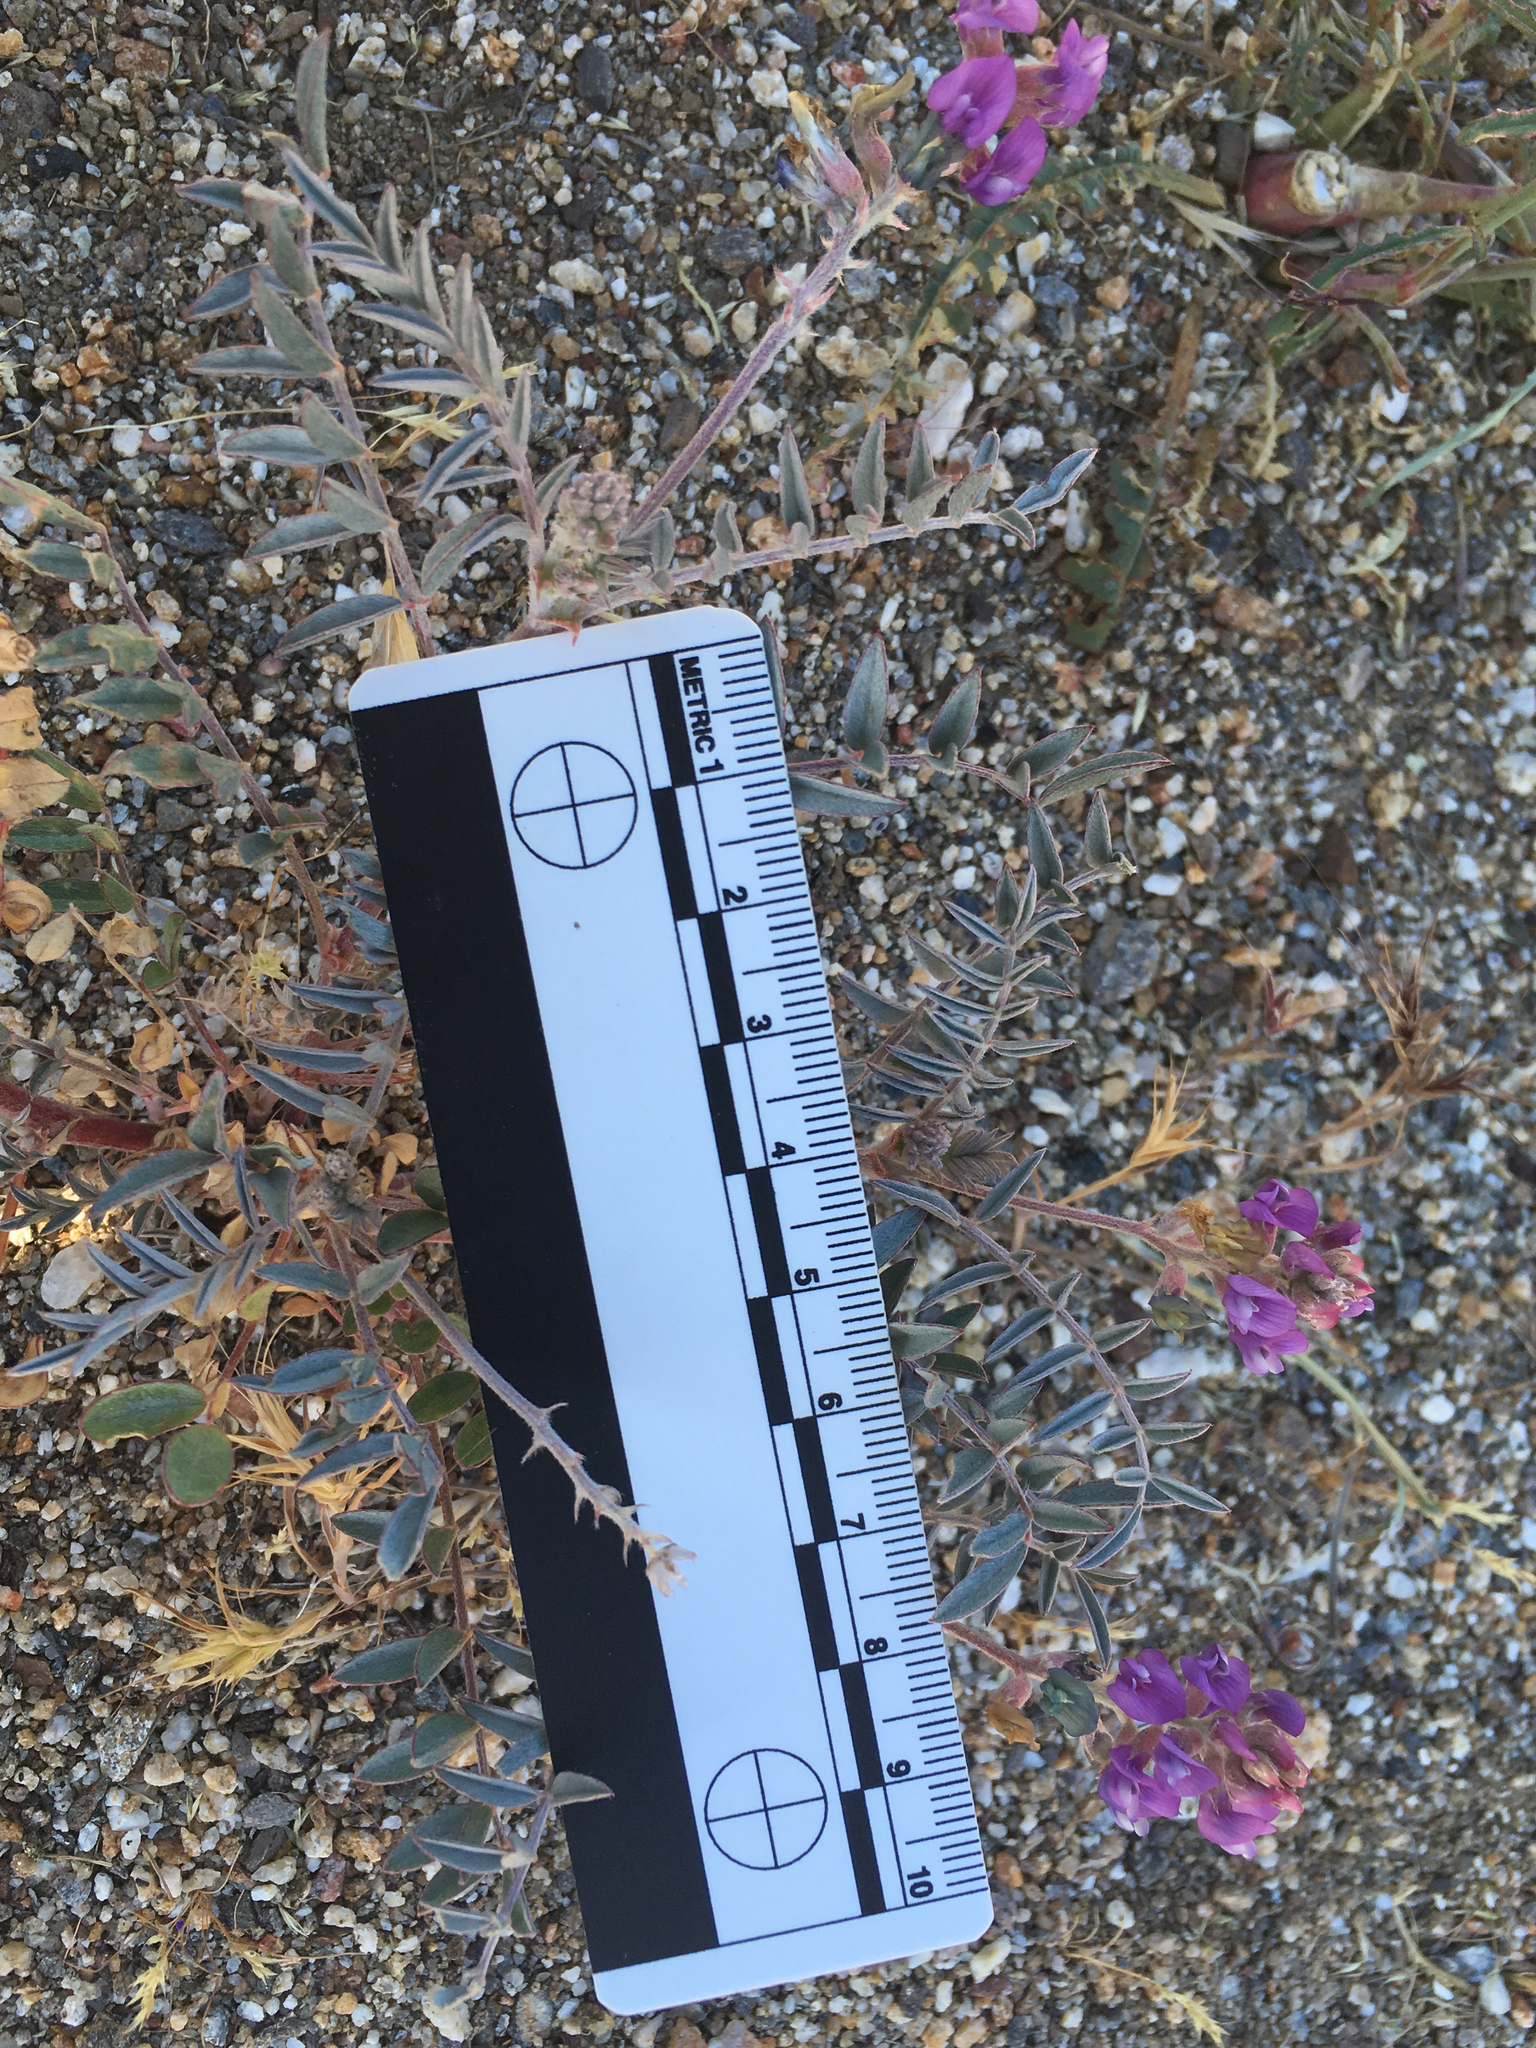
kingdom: Plantae
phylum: Tracheophyta
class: Magnoliopsida
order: Fabales
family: Fabaceae
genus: Astragalus
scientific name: Astragalus palmeri
